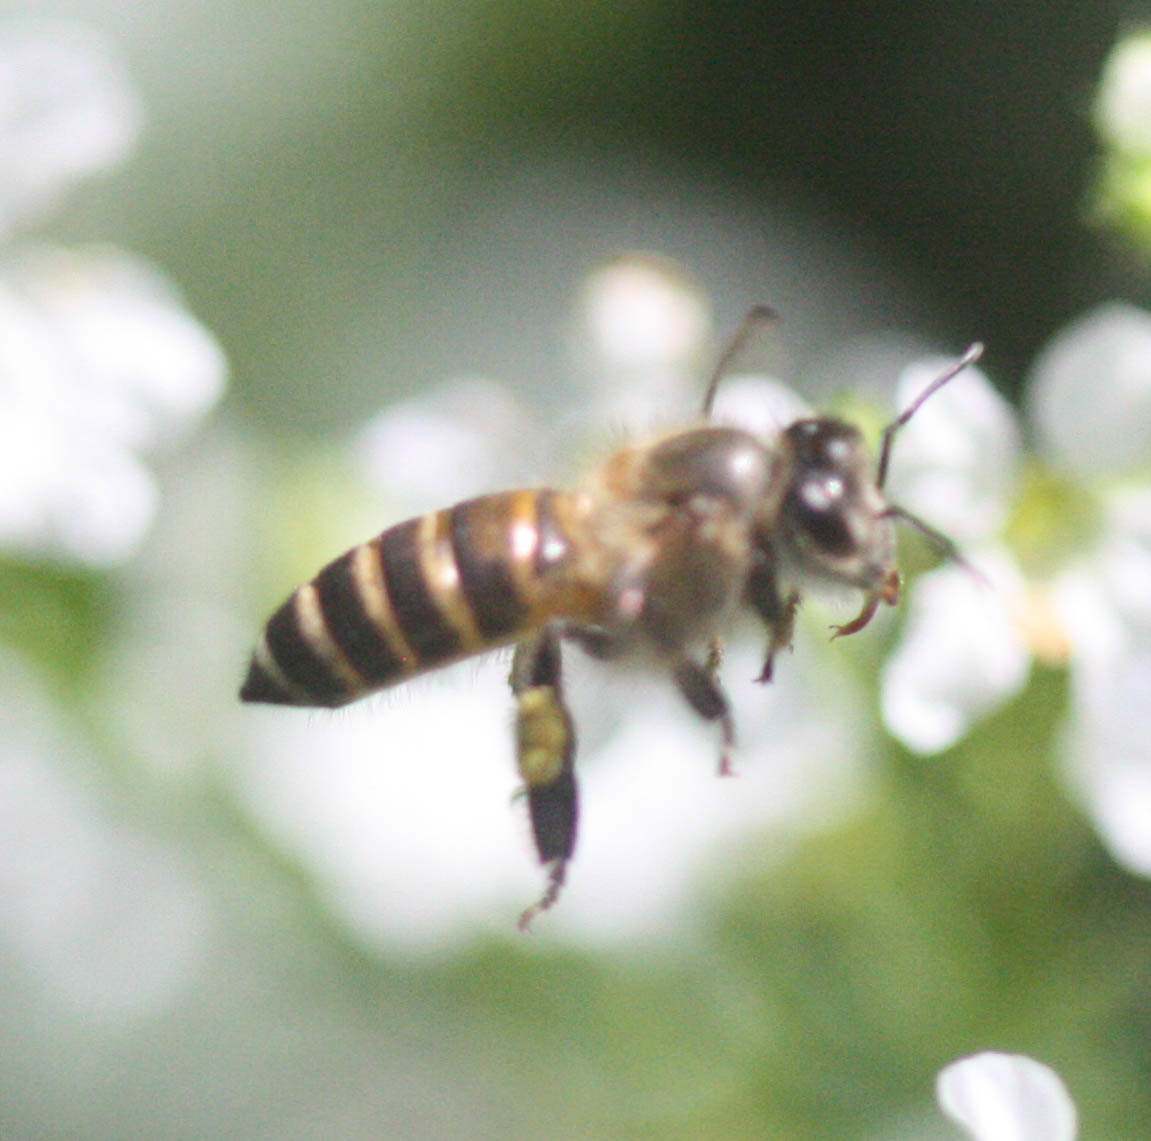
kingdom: Animalia
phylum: Arthropoda
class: Insecta
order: Hymenoptera
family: Apidae
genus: Apis
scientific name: Apis cerana
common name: Honey bee
